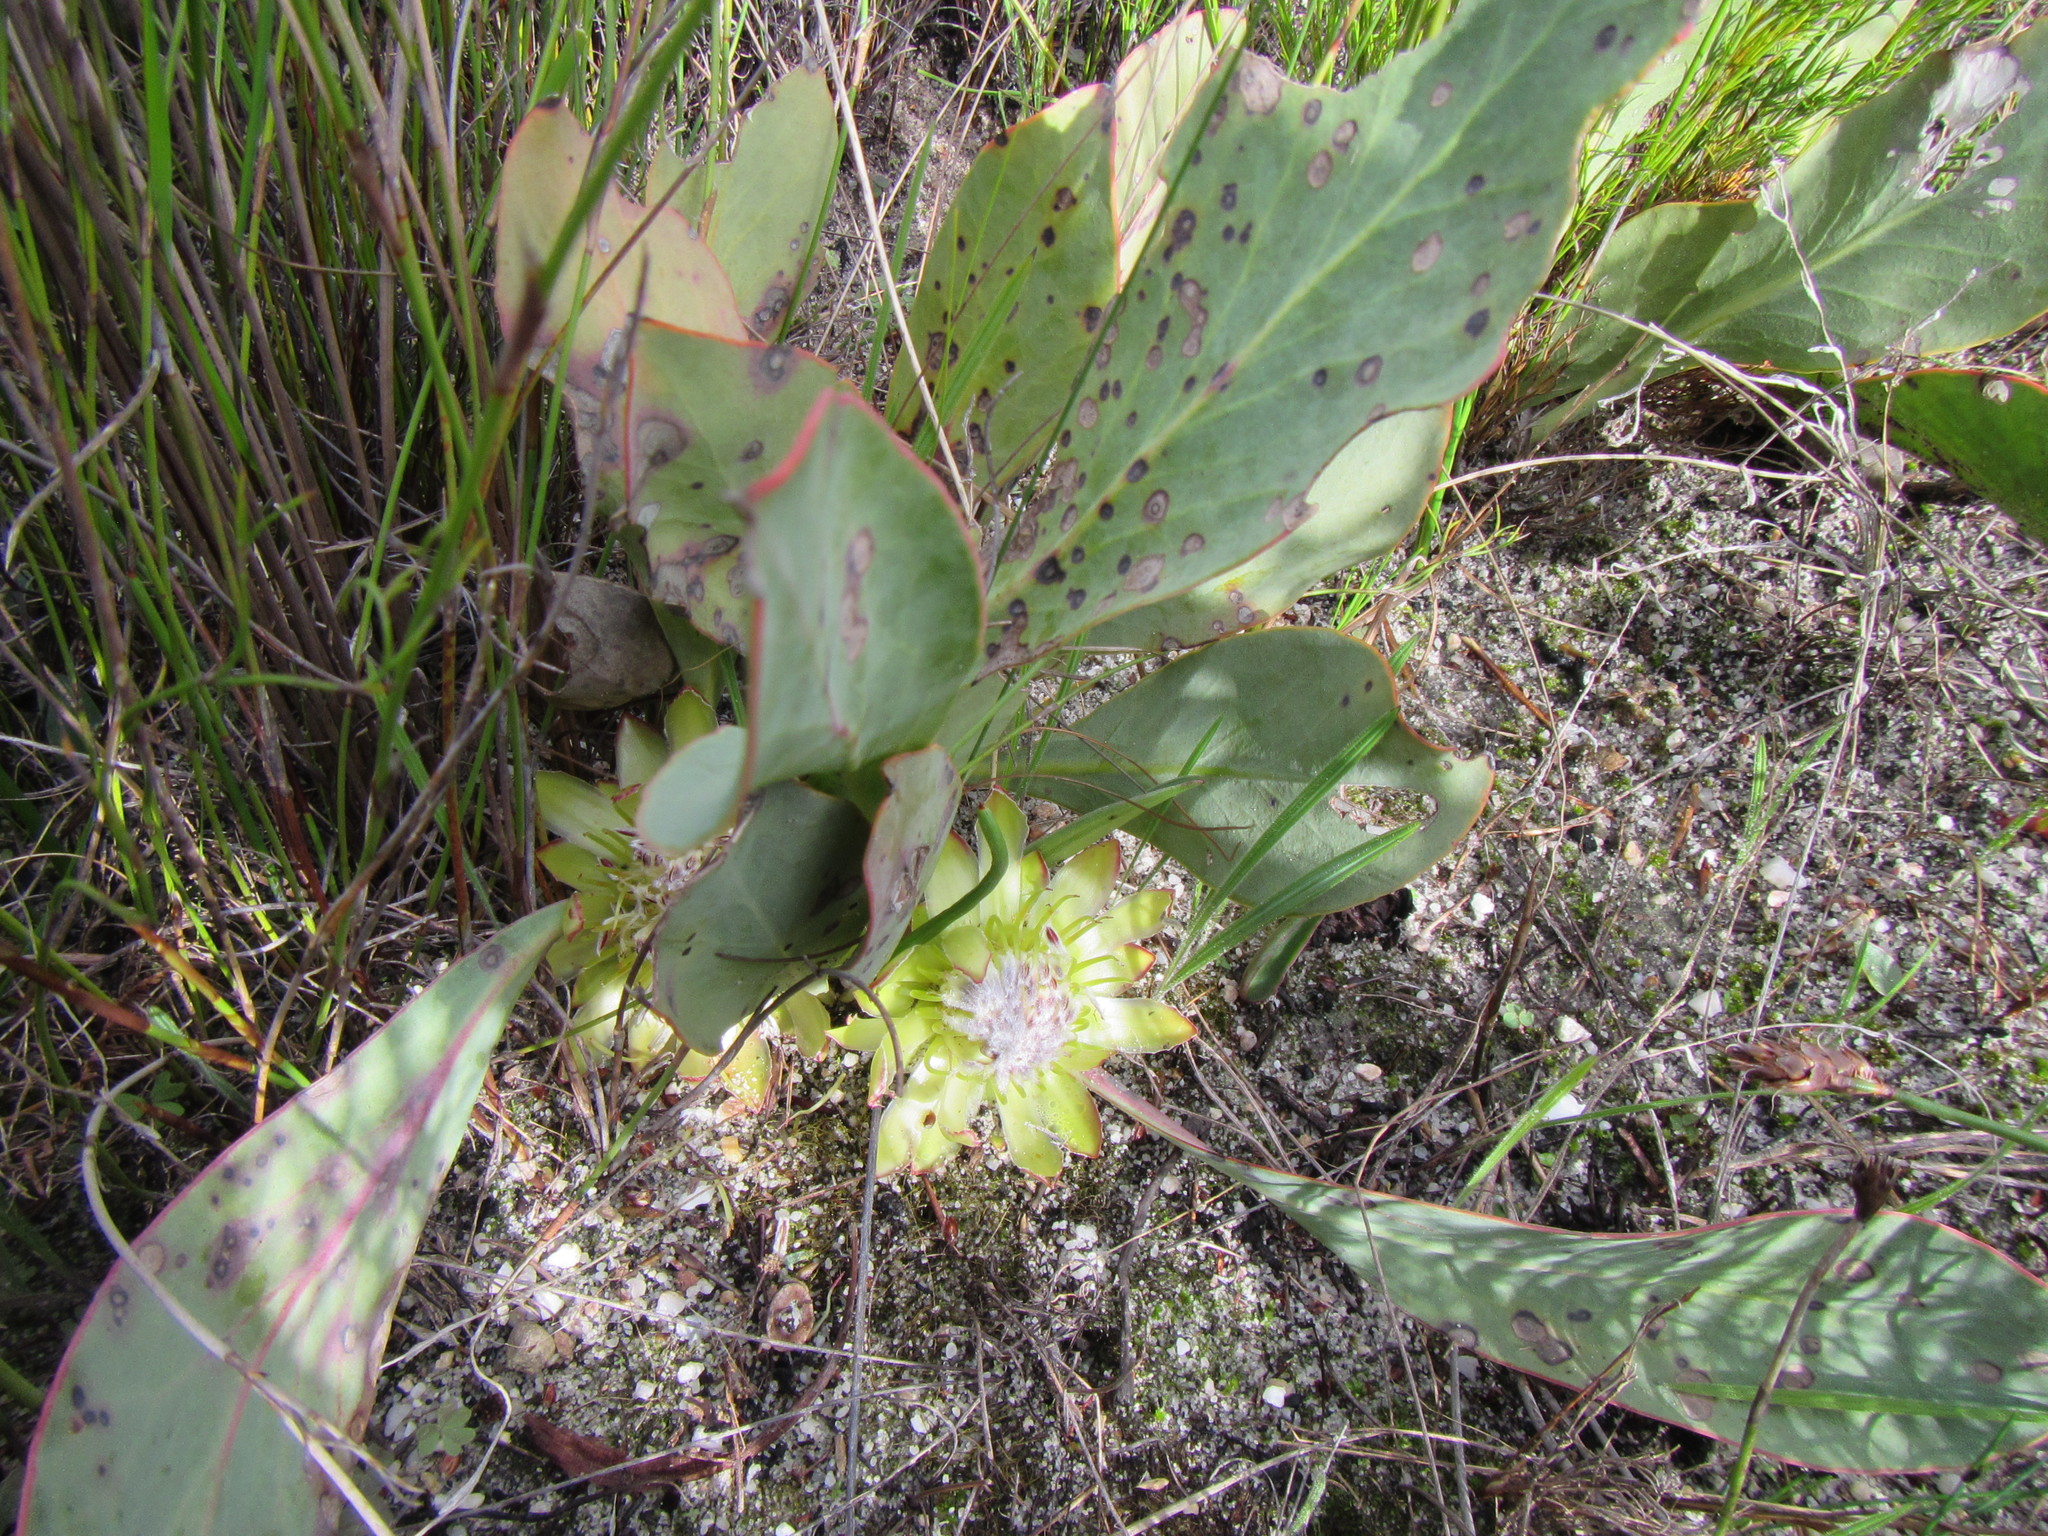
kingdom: Plantae
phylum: Tracheophyta
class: Magnoliopsida
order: Proteales
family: Proteaceae
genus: Protea
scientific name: Protea acaulos
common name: Common ground sugarbush
